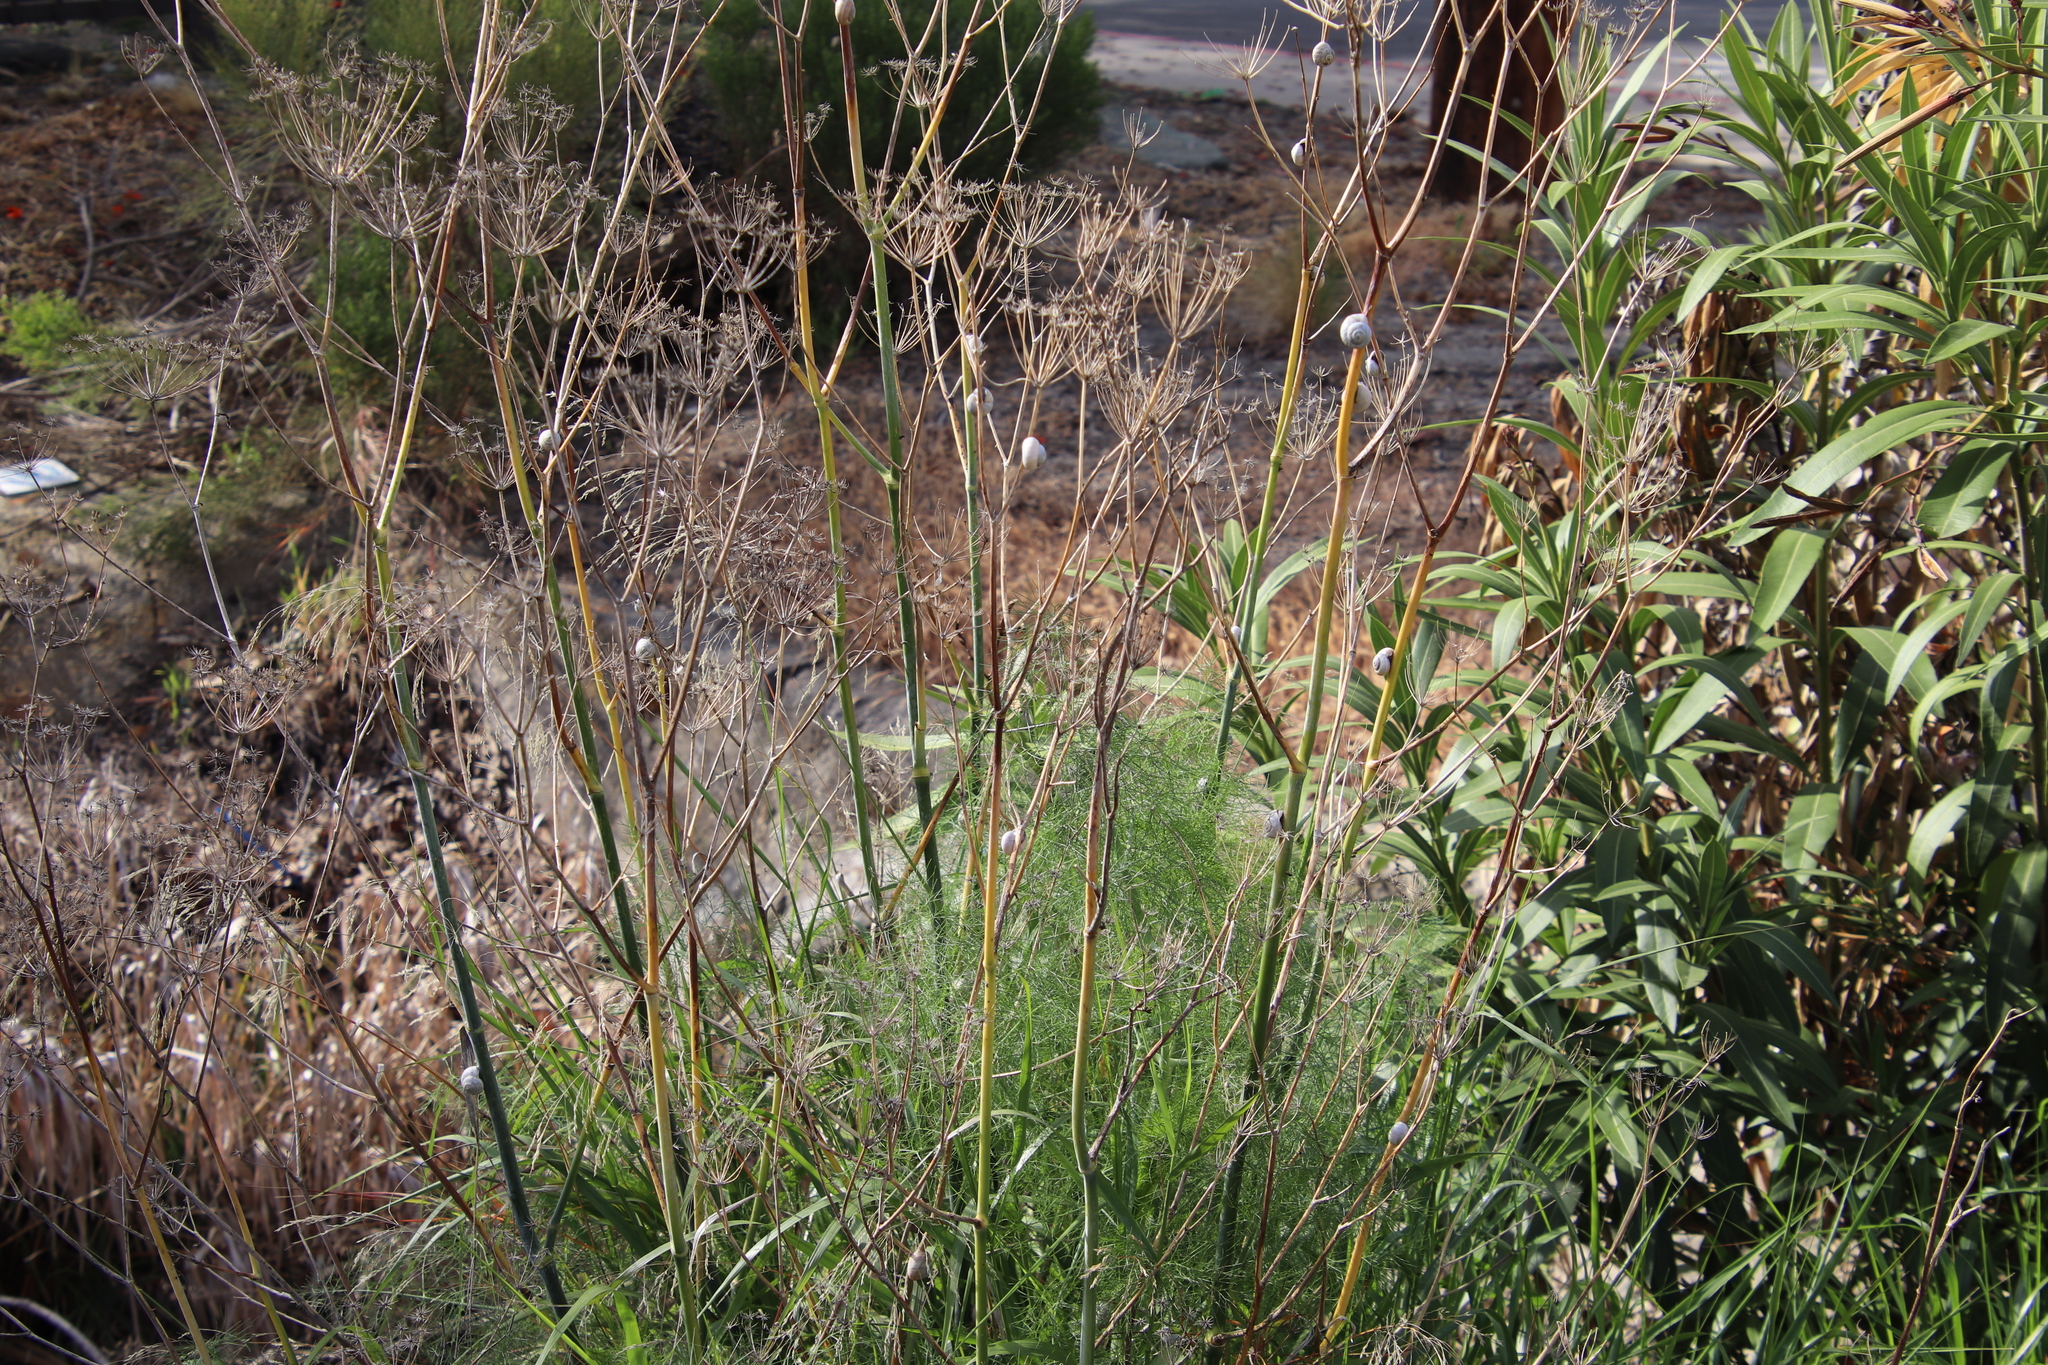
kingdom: Plantae
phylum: Tracheophyta
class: Magnoliopsida
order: Apiales
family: Apiaceae
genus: Foeniculum
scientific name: Foeniculum vulgare
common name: Fennel
